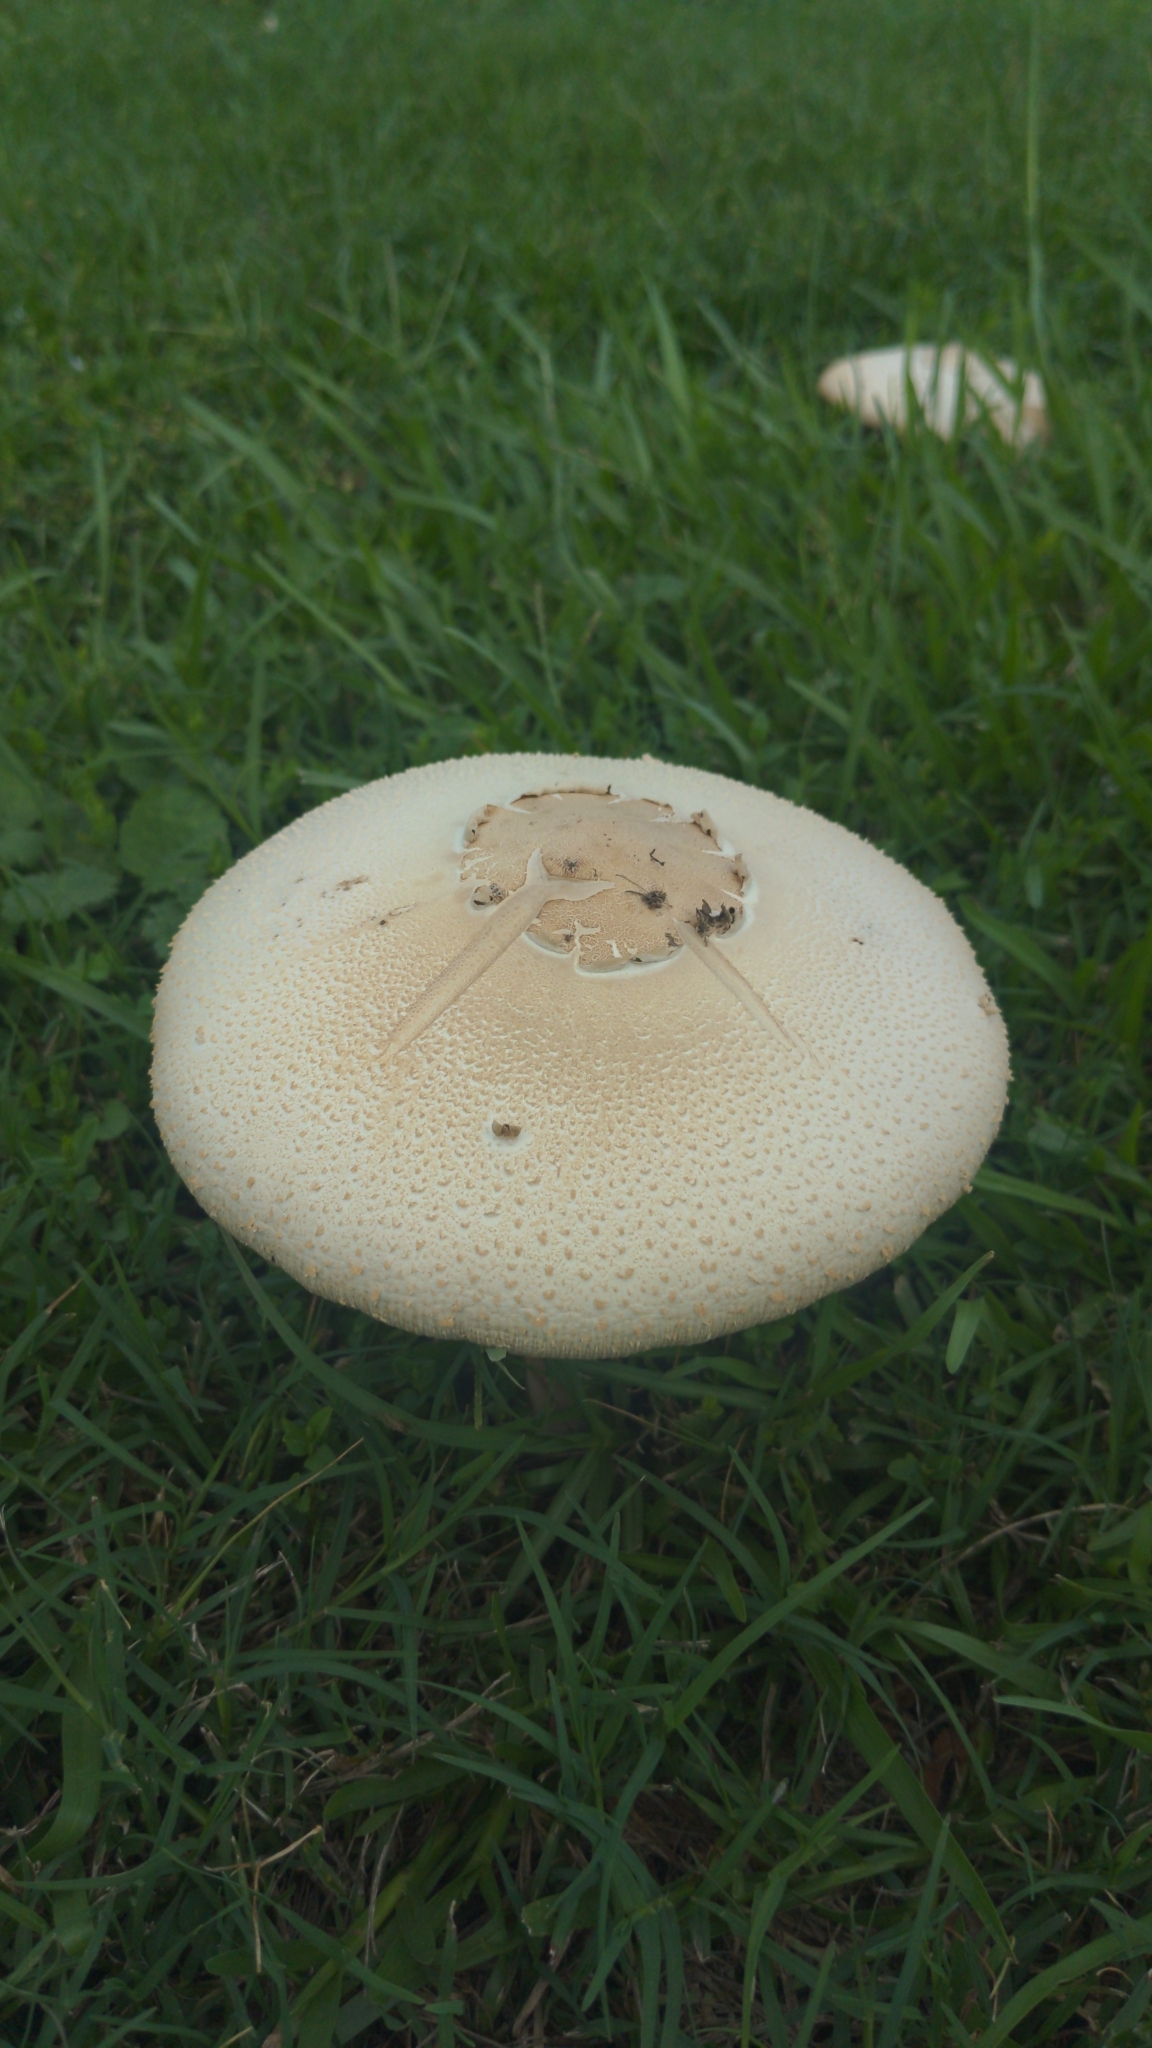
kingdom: Fungi
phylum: Basidiomycota
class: Agaricomycetes
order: Agaricales
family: Agaricaceae
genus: Chlorophyllum
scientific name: Chlorophyllum molybdites
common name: False parasol
